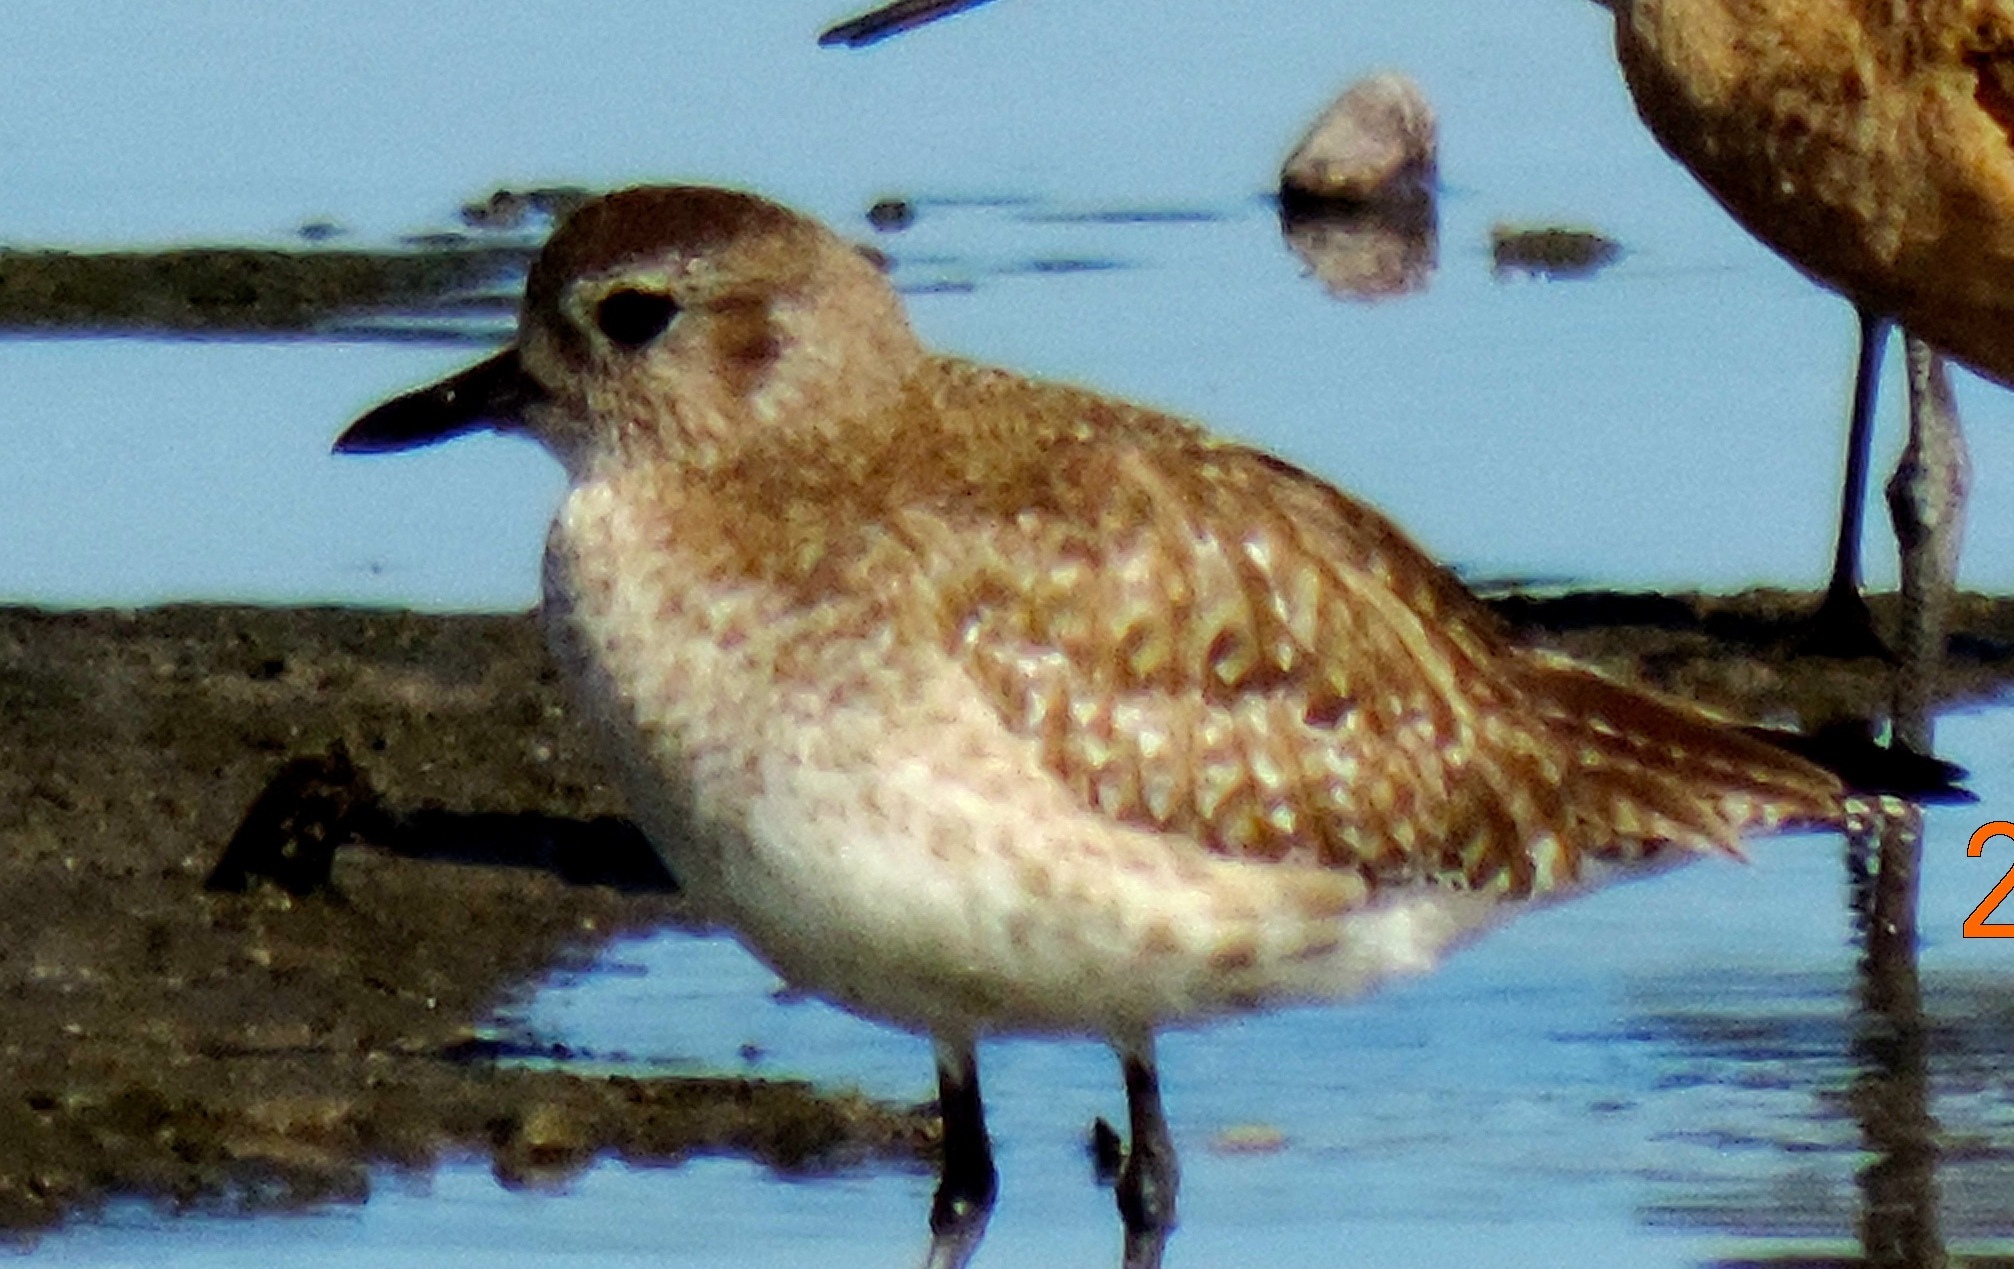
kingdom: Animalia
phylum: Chordata
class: Aves
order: Charadriiformes
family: Charadriidae
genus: Pluvialis
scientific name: Pluvialis squatarola
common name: Grey plover
